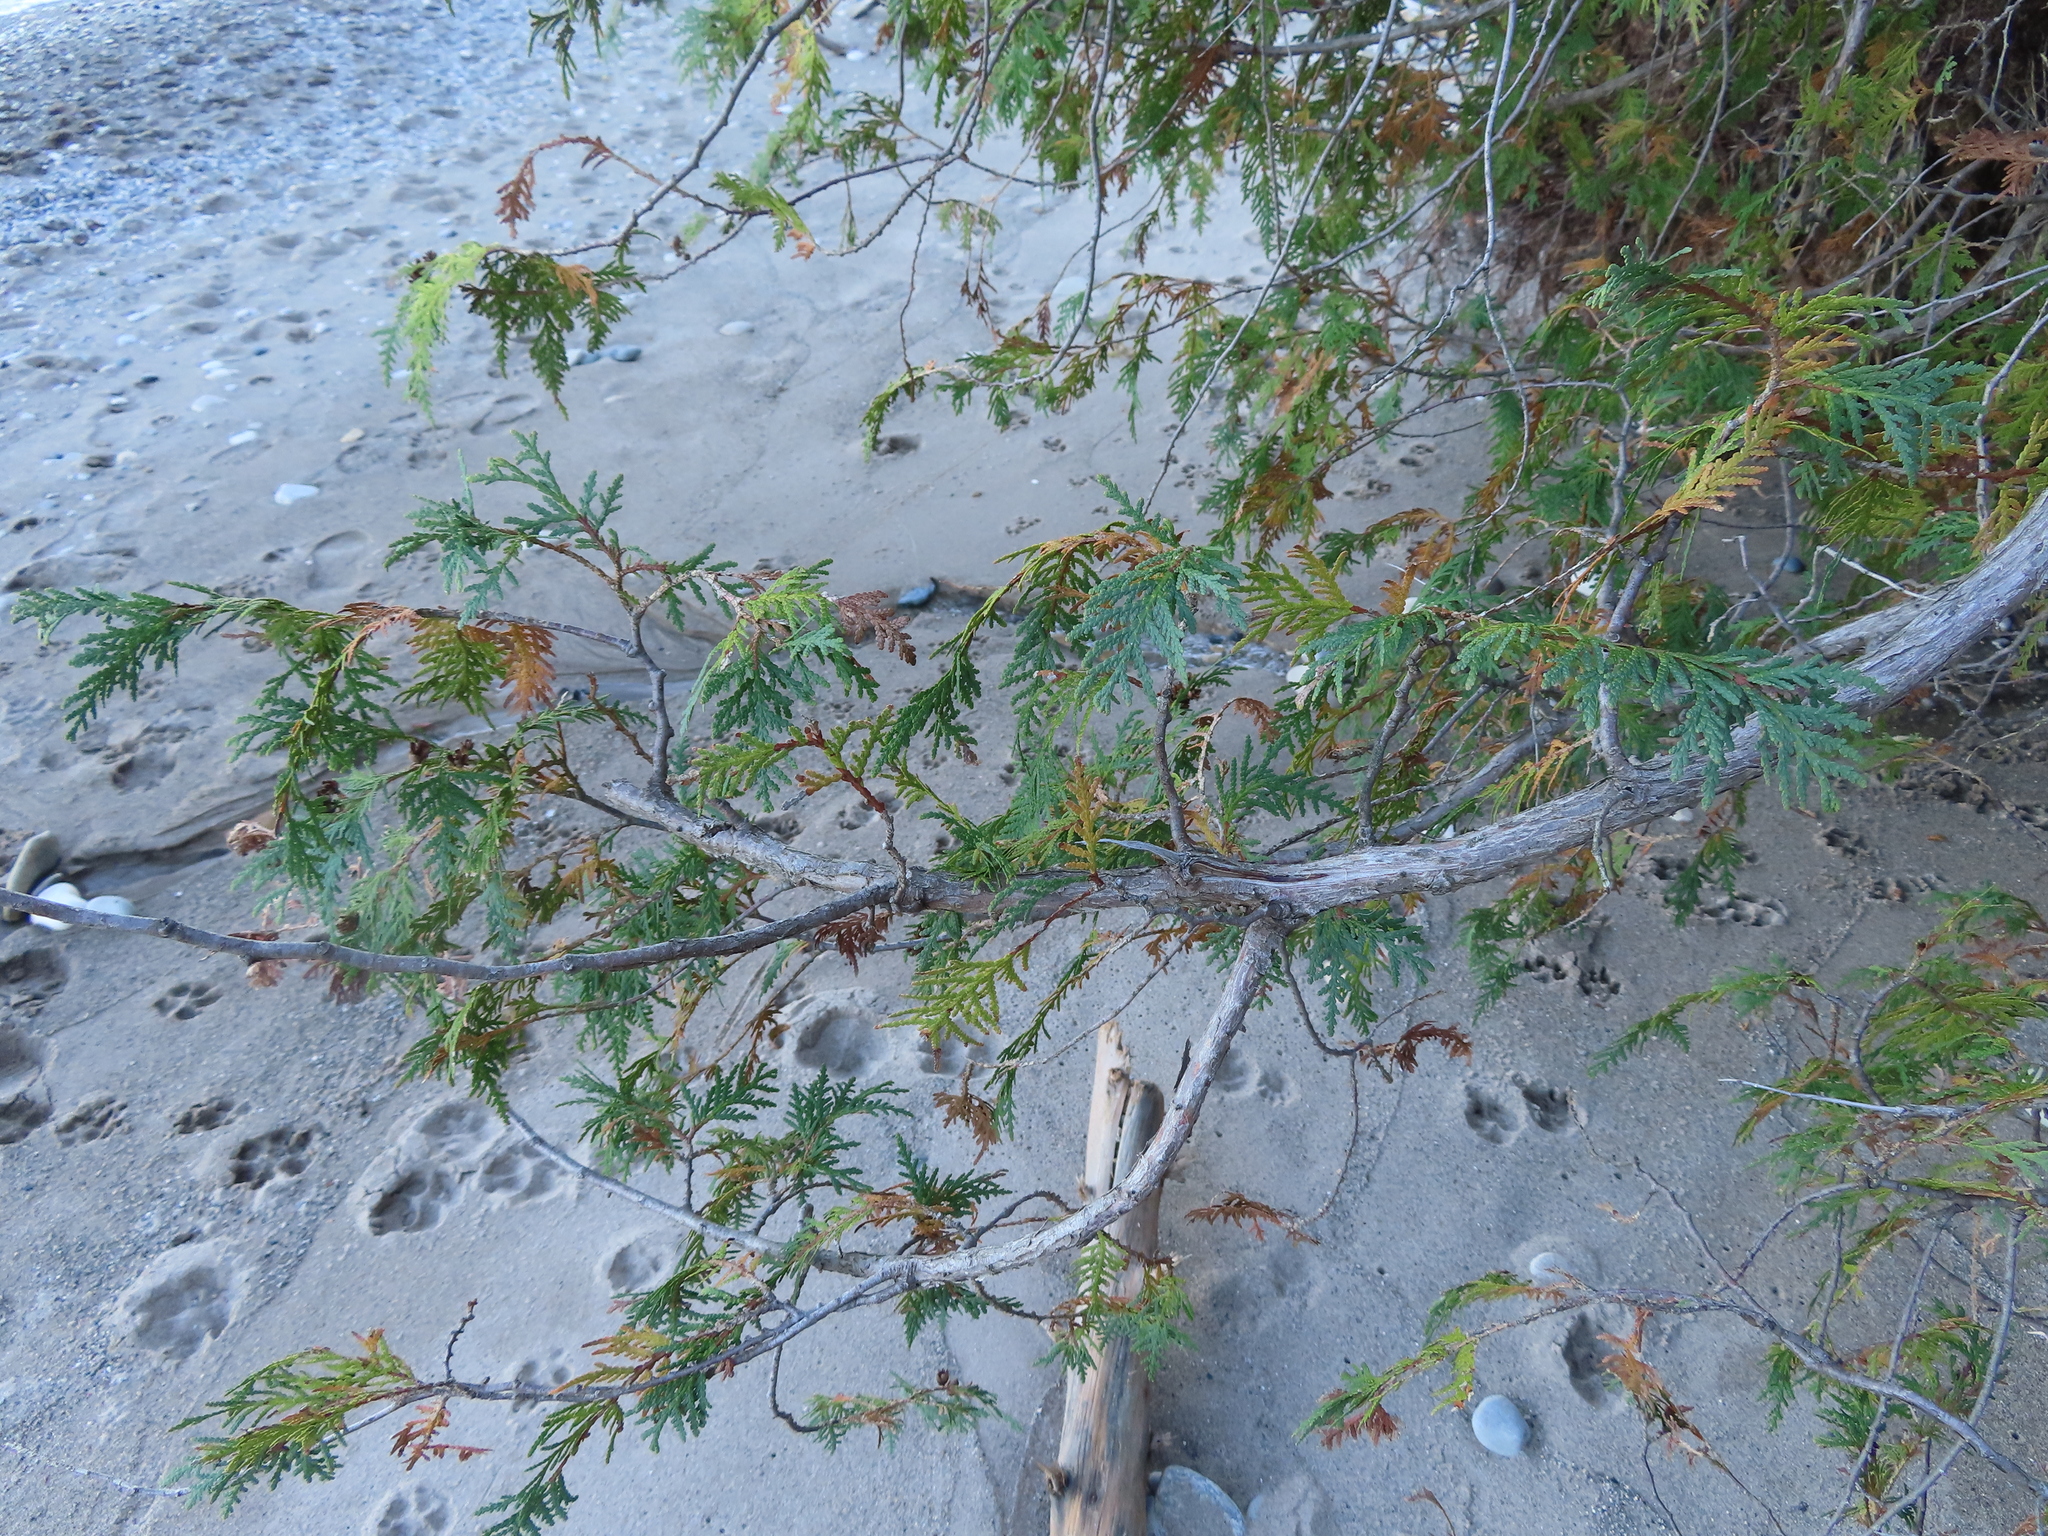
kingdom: Plantae
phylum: Tracheophyta
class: Pinopsida
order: Pinales
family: Cupressaceae
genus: Thuja
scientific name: Thuja occidentalis
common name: Northern white-cedar
